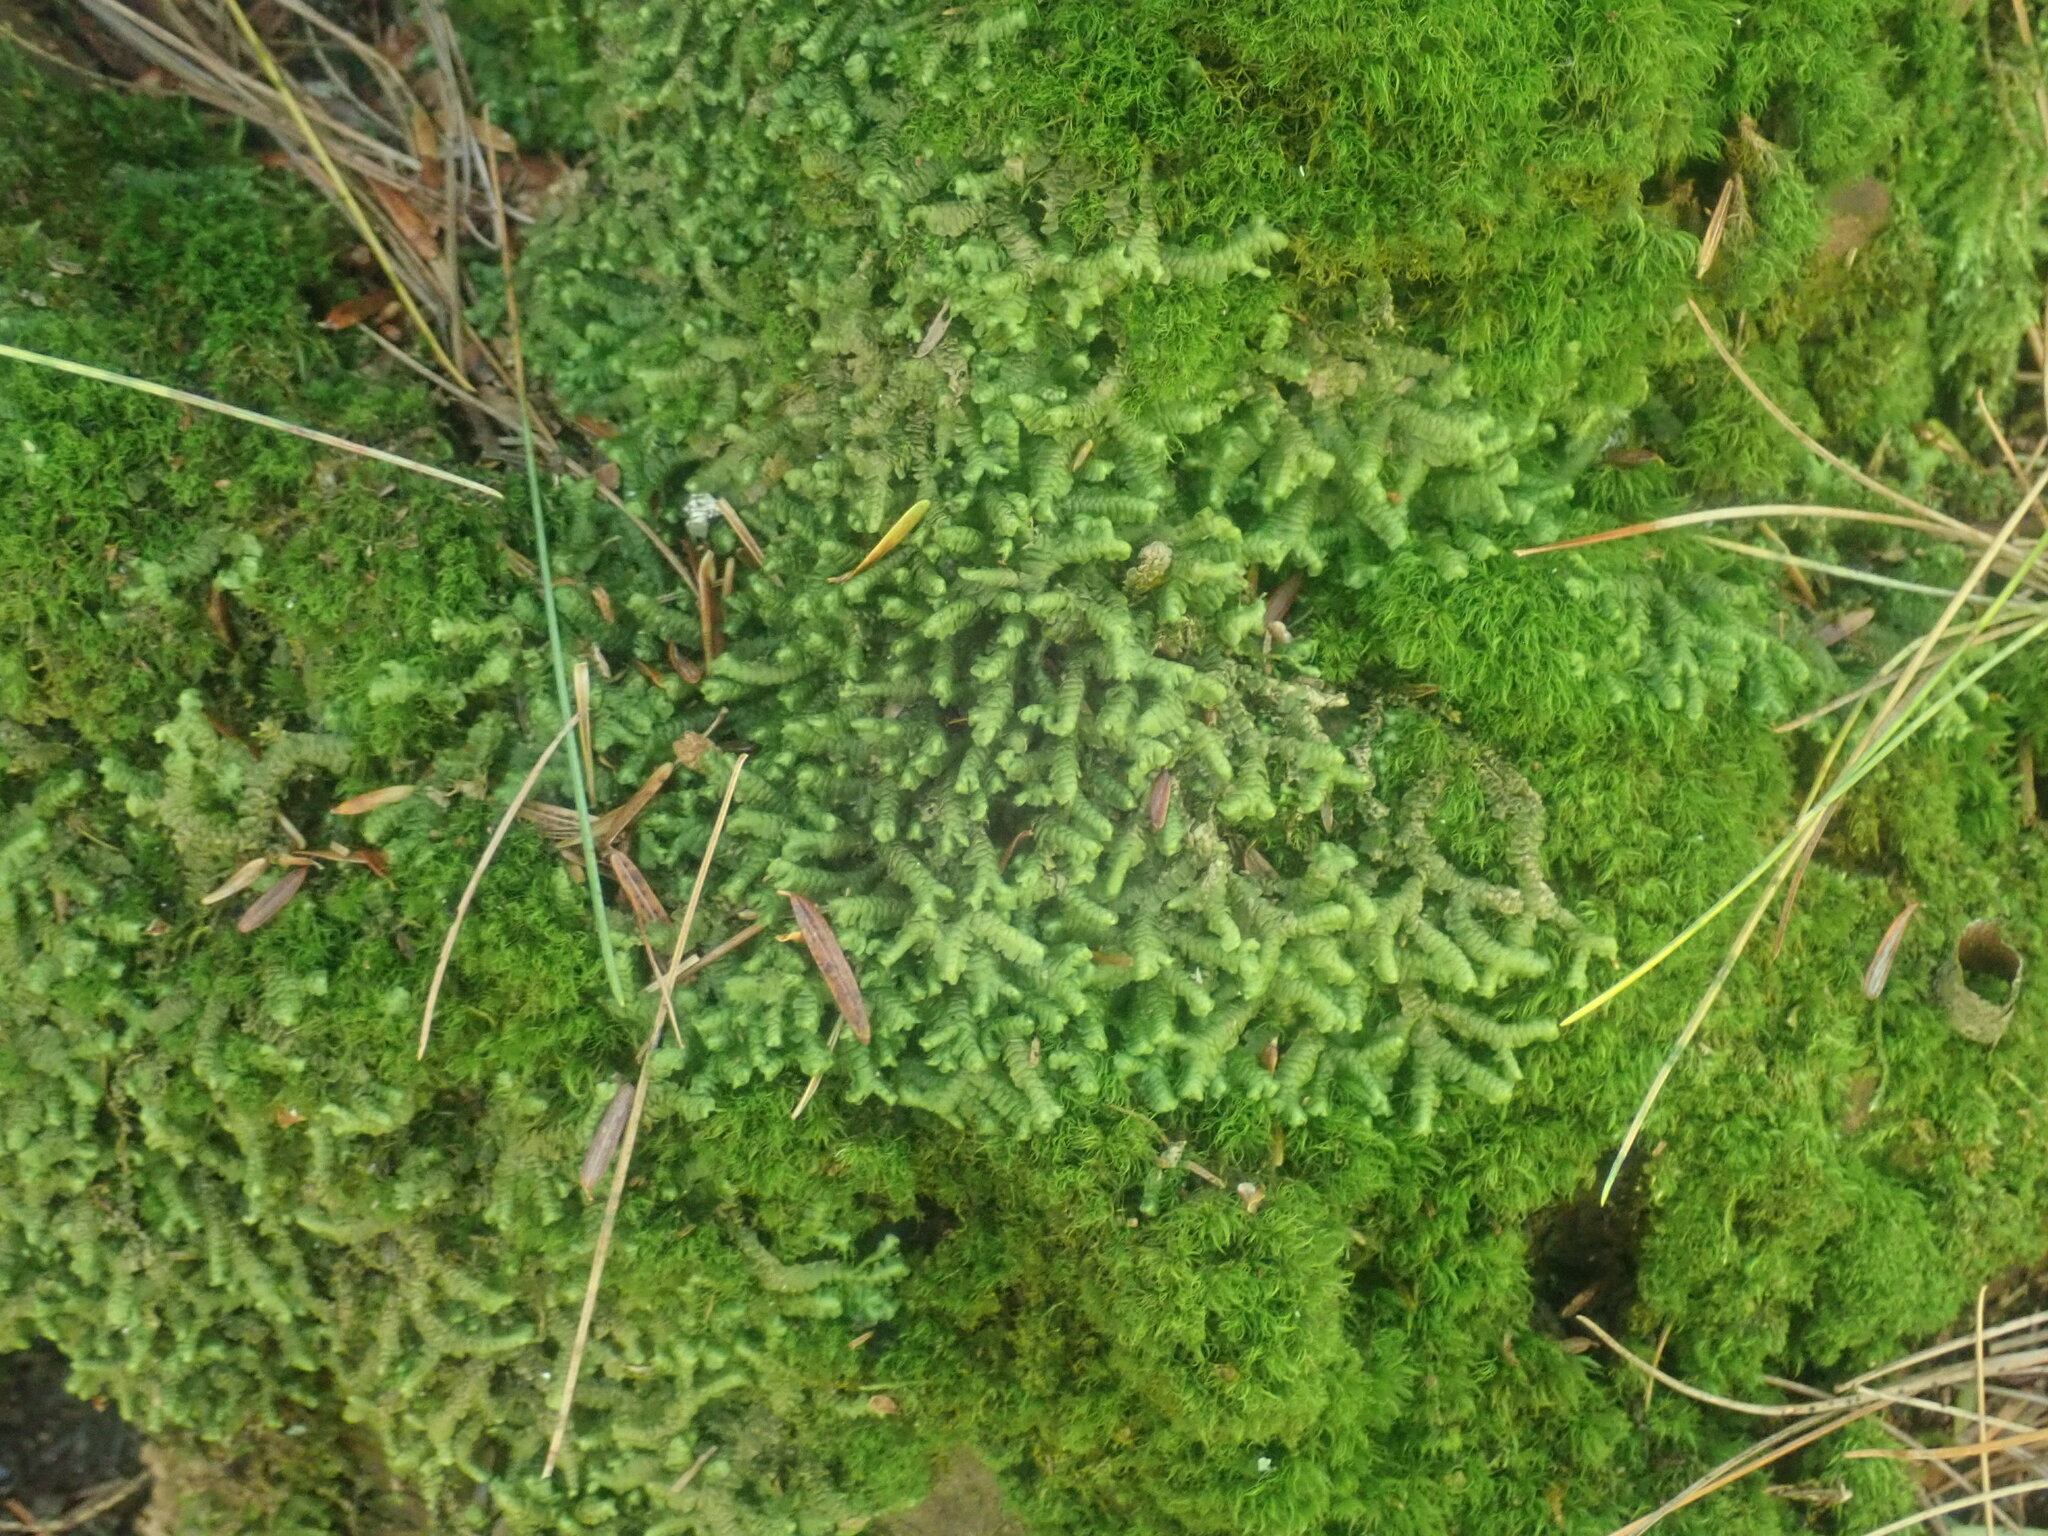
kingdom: Plantae
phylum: Marchantiophyta
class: Jungermanniopsida
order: Jungermanniales
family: Lepidoziaceae
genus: Bazzania
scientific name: Bazzania trilobata
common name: Three-lobed whipwort
